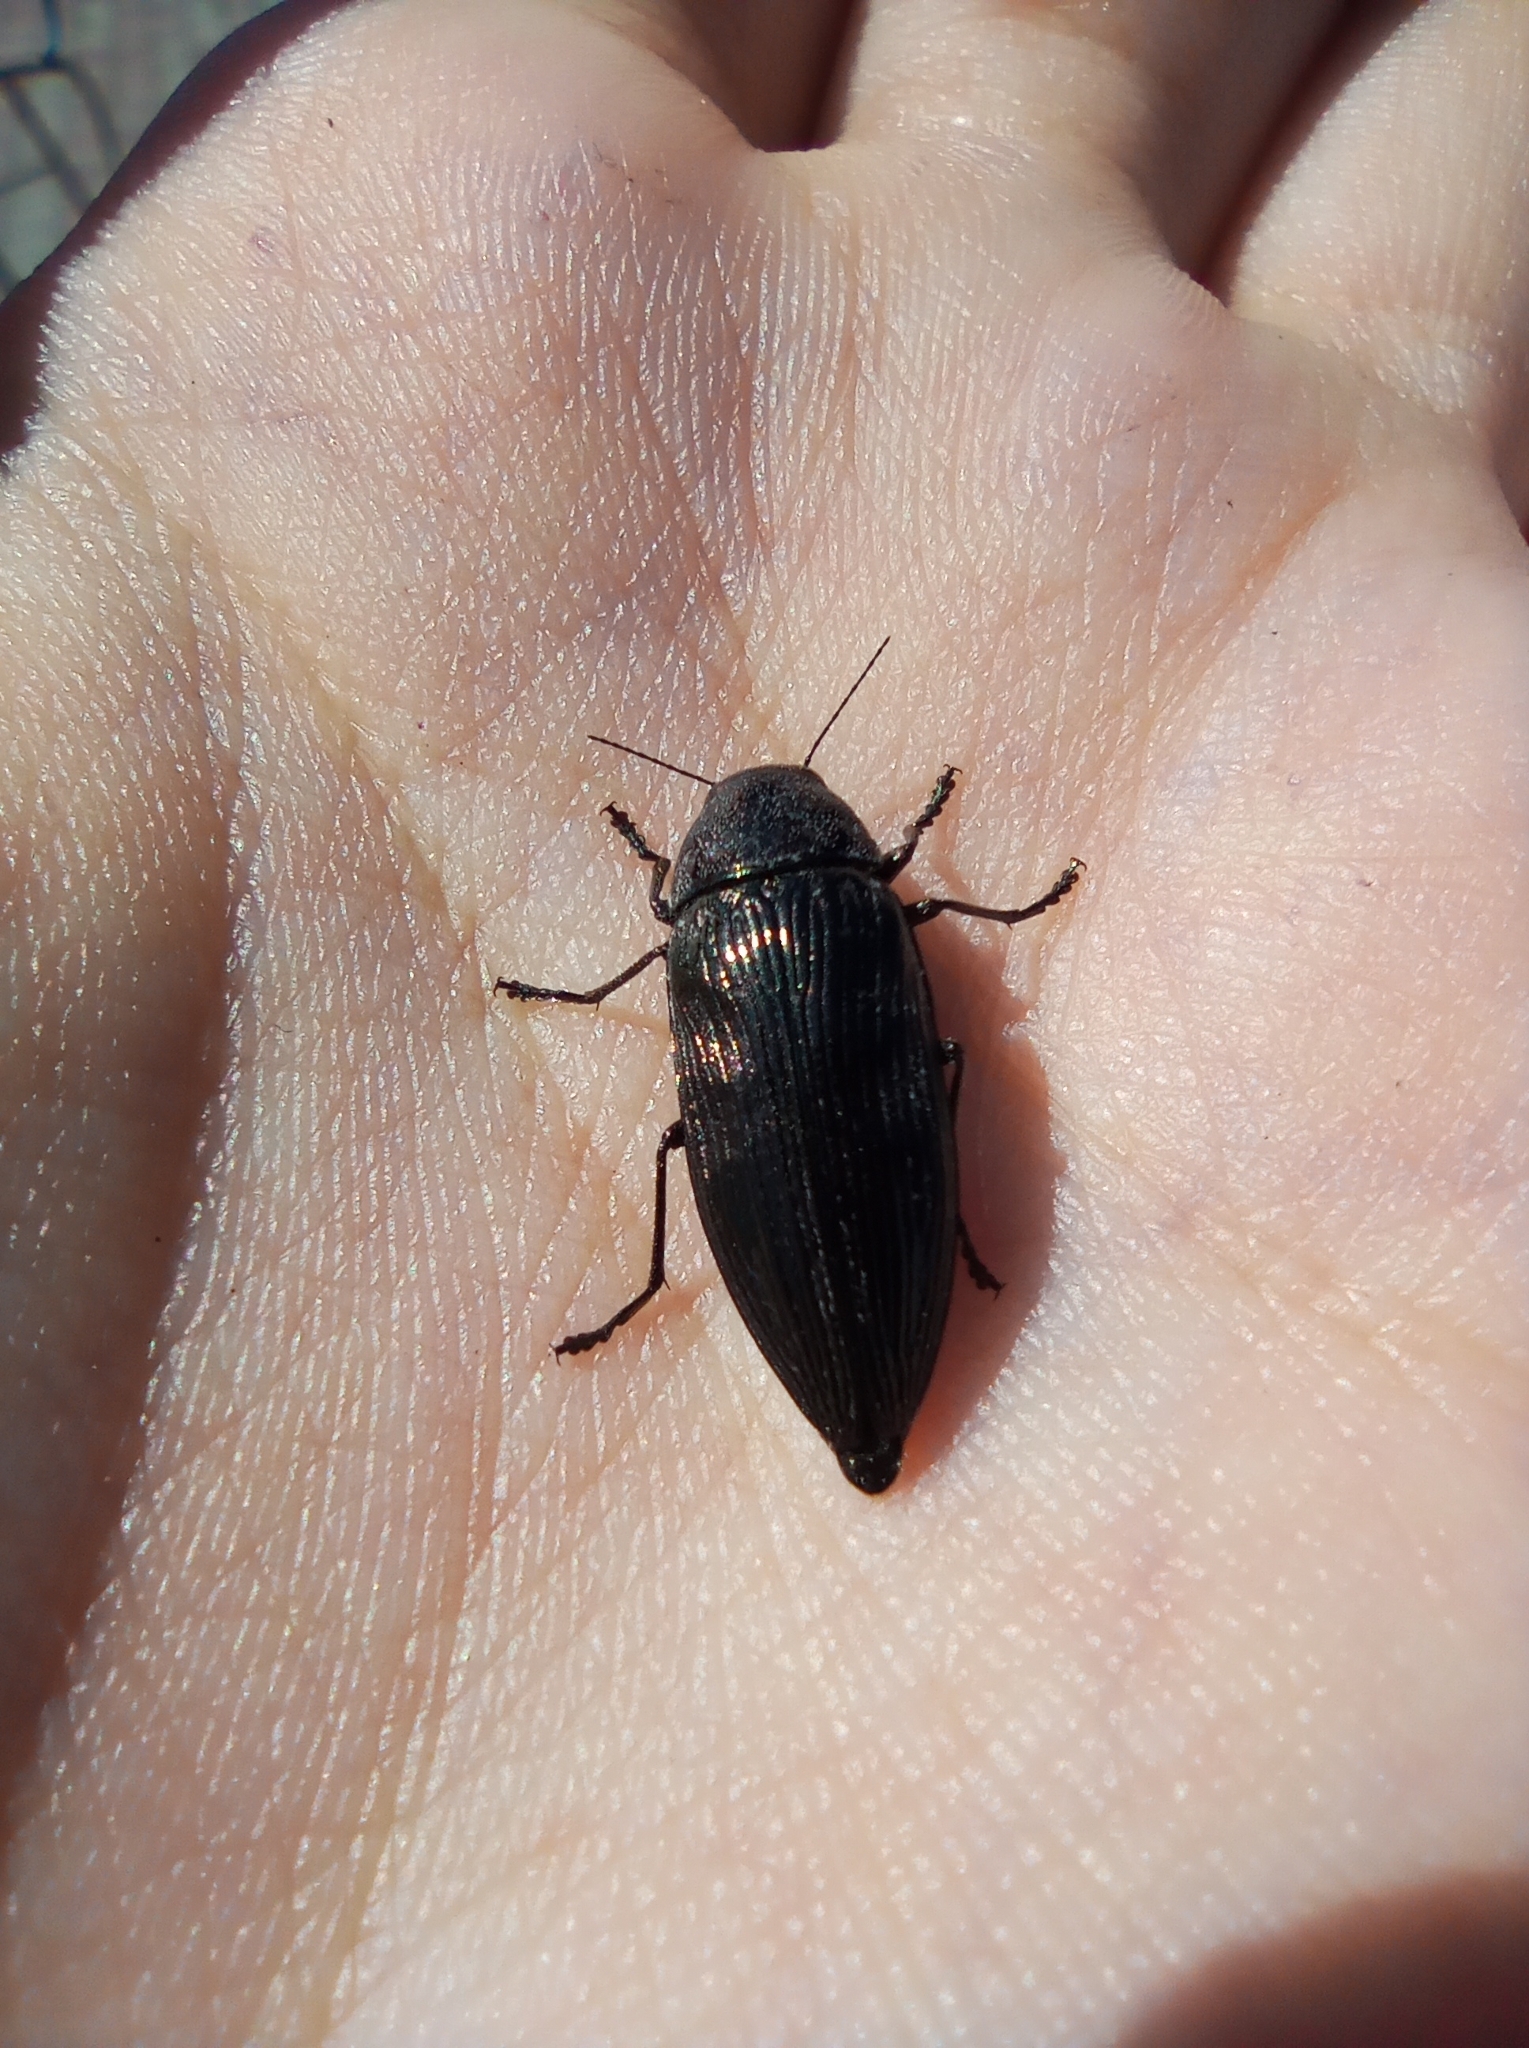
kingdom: Animalia
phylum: Arthropoda
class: Insecta
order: Coleoptera
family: Buprestidae
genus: Buprestis
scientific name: Buprestis haemorrhoidalis
